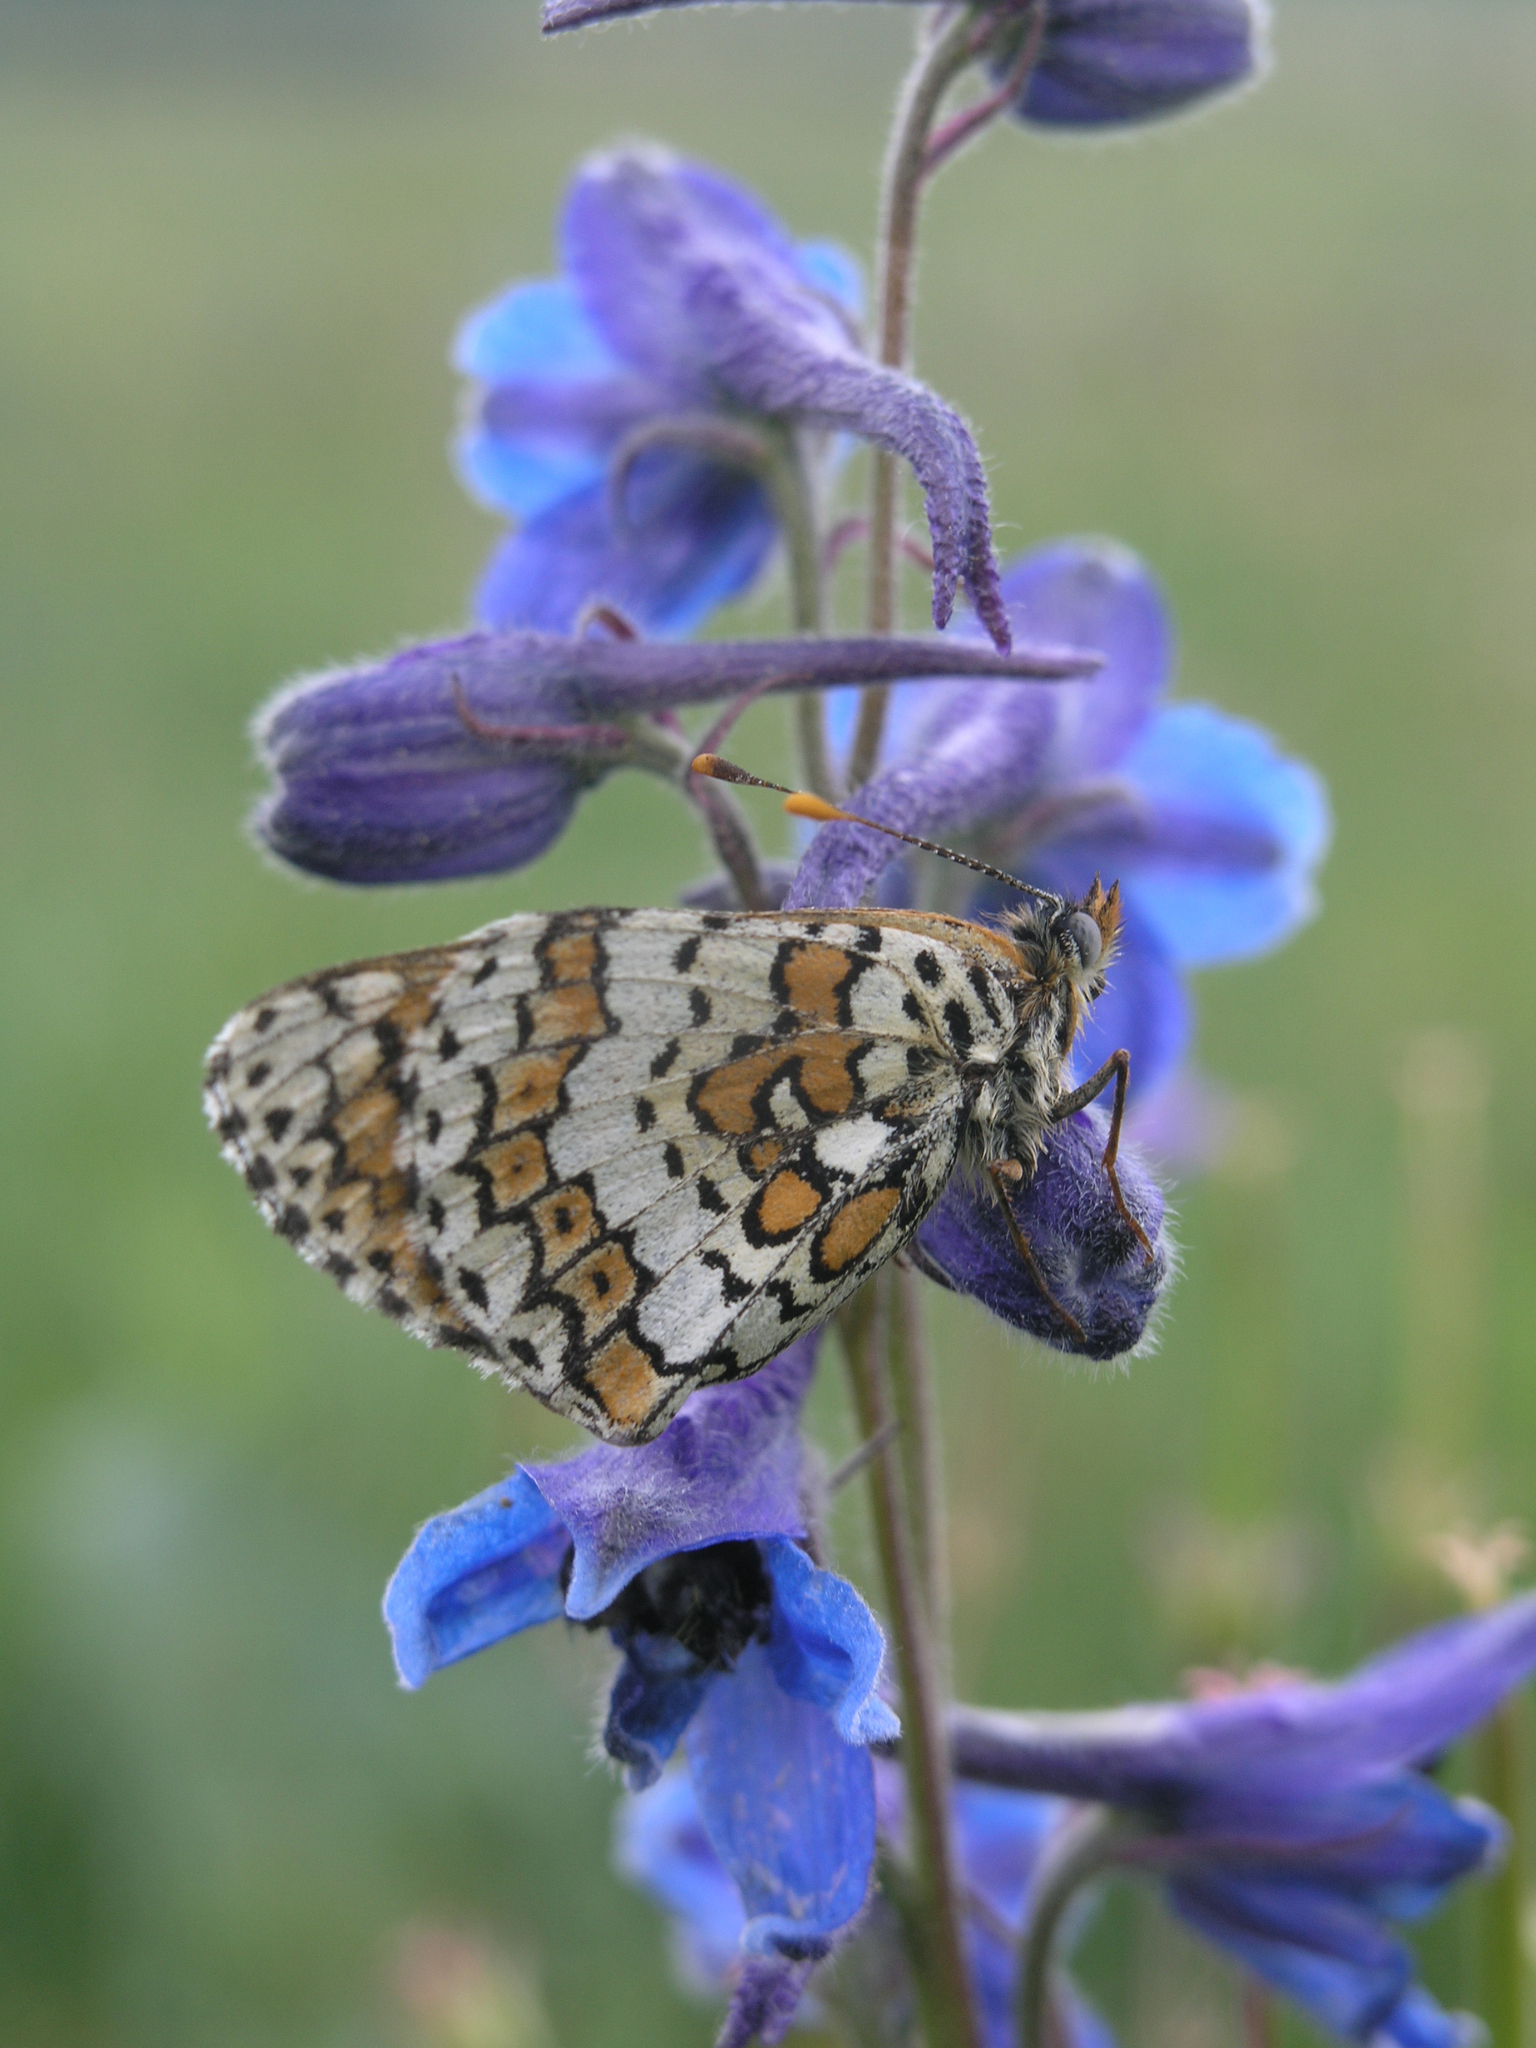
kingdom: Animalia
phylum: Arthropoda
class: Insecta
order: Lepidoptera
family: Nymphalidae
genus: Melitaea
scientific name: Melitaea cinxia
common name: Glanville fritillary
